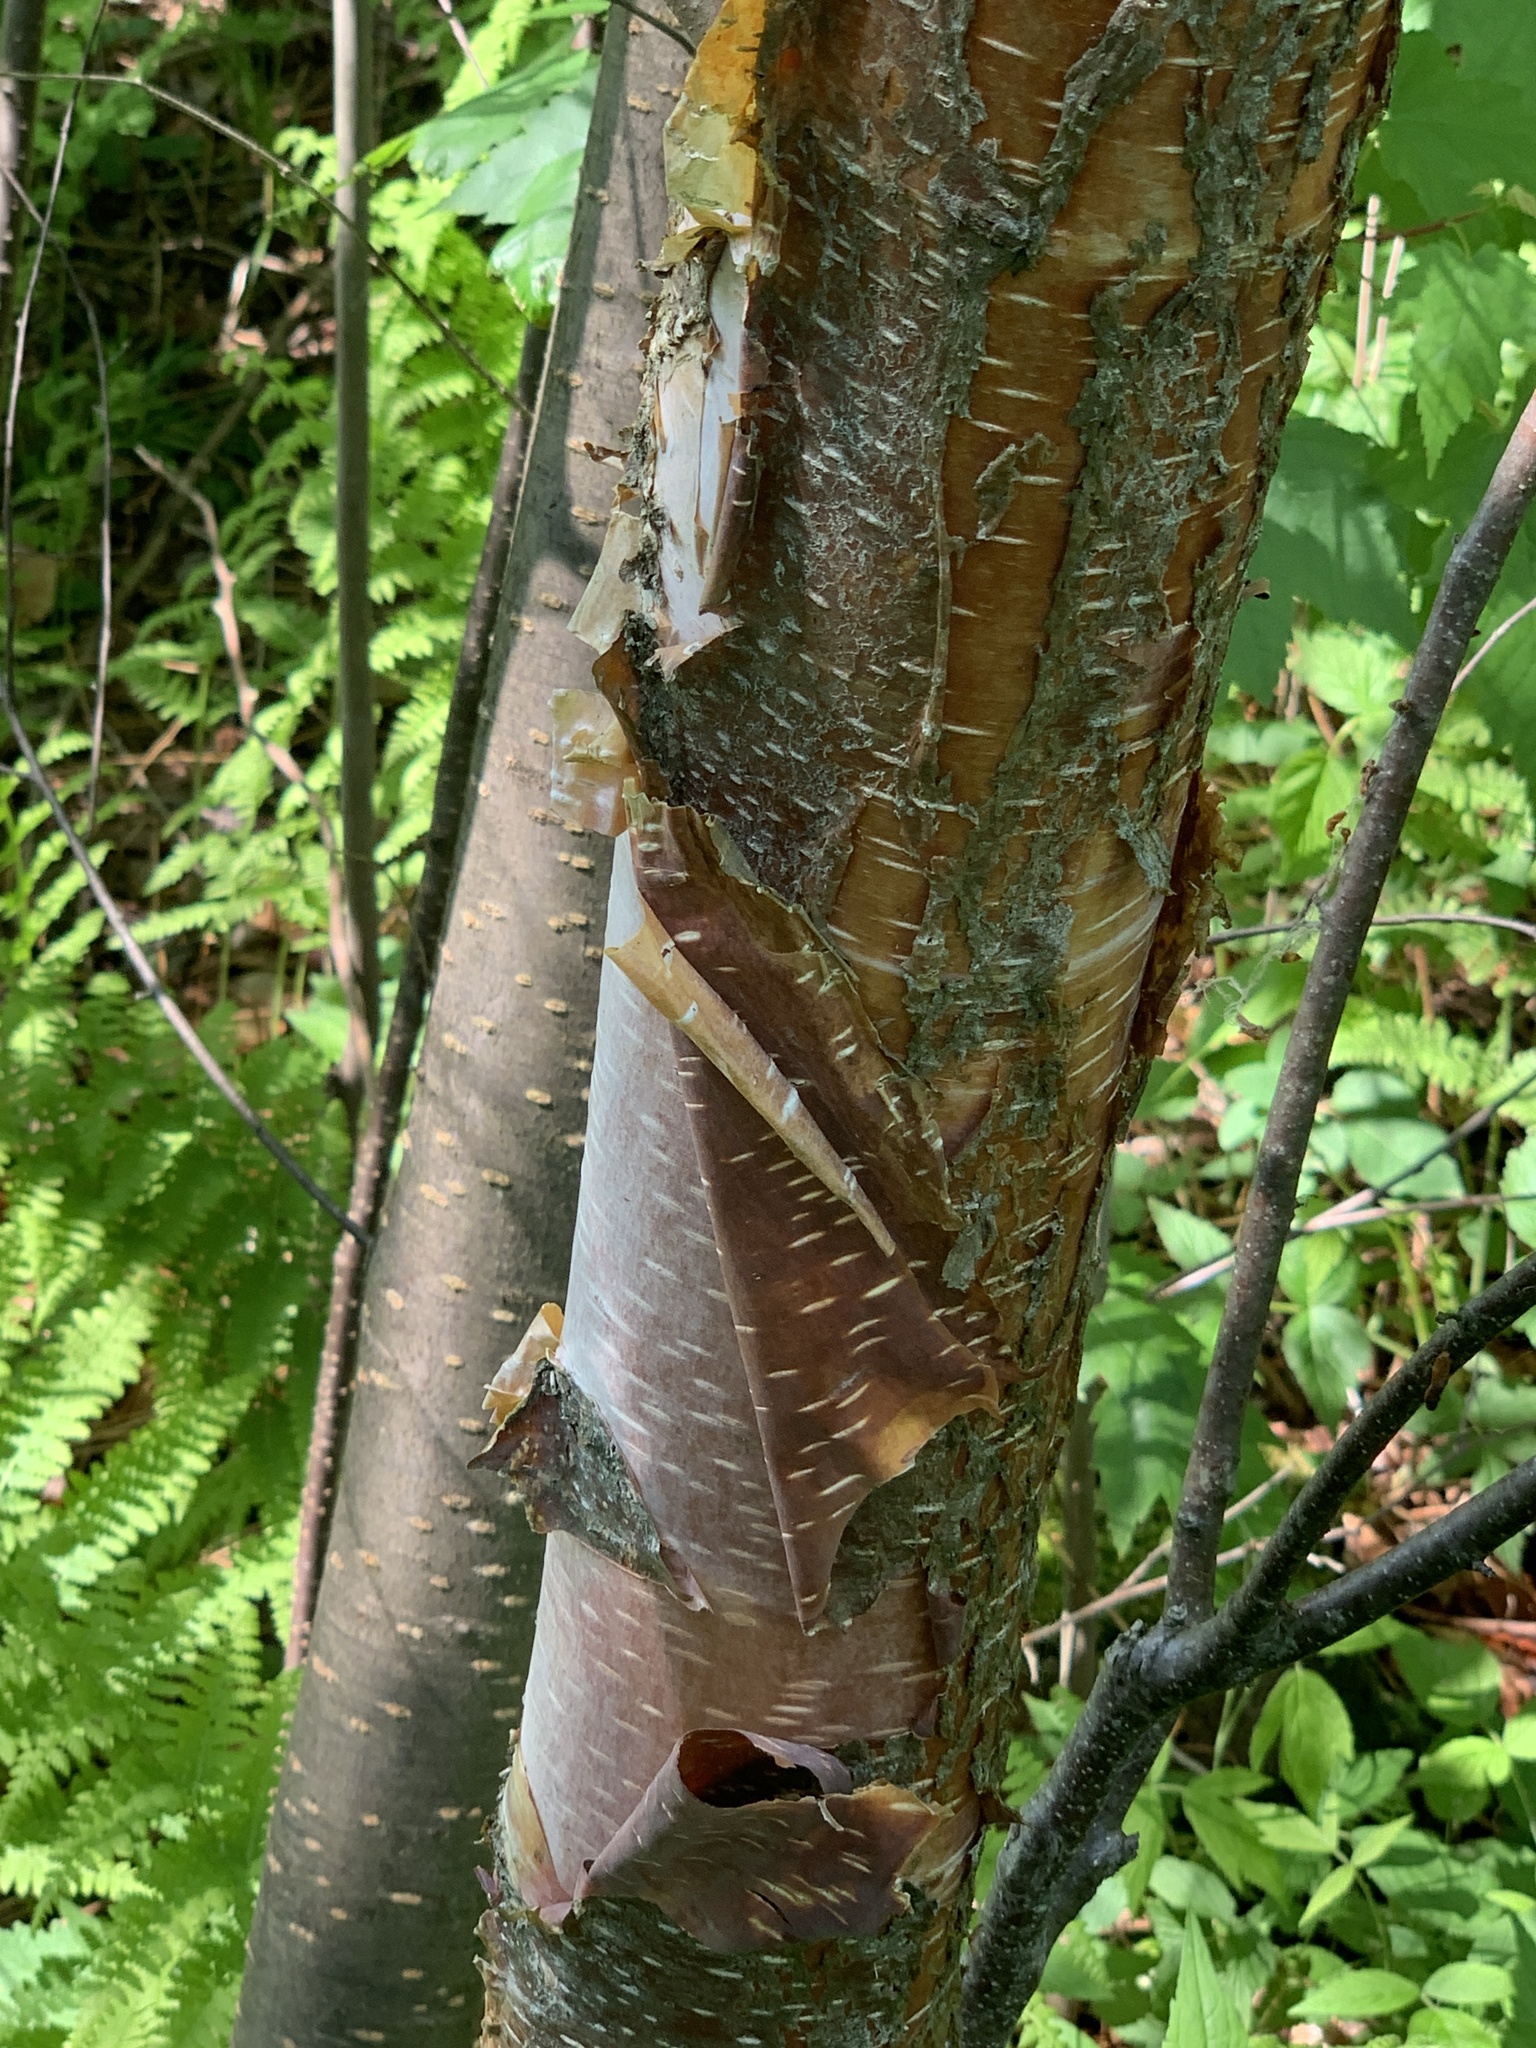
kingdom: Plantae
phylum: Tracheophyta
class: Magnoliopsida
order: Fagales
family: Betulaceae
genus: Betula
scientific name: Betula cordifolia
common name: Mountain white birch
